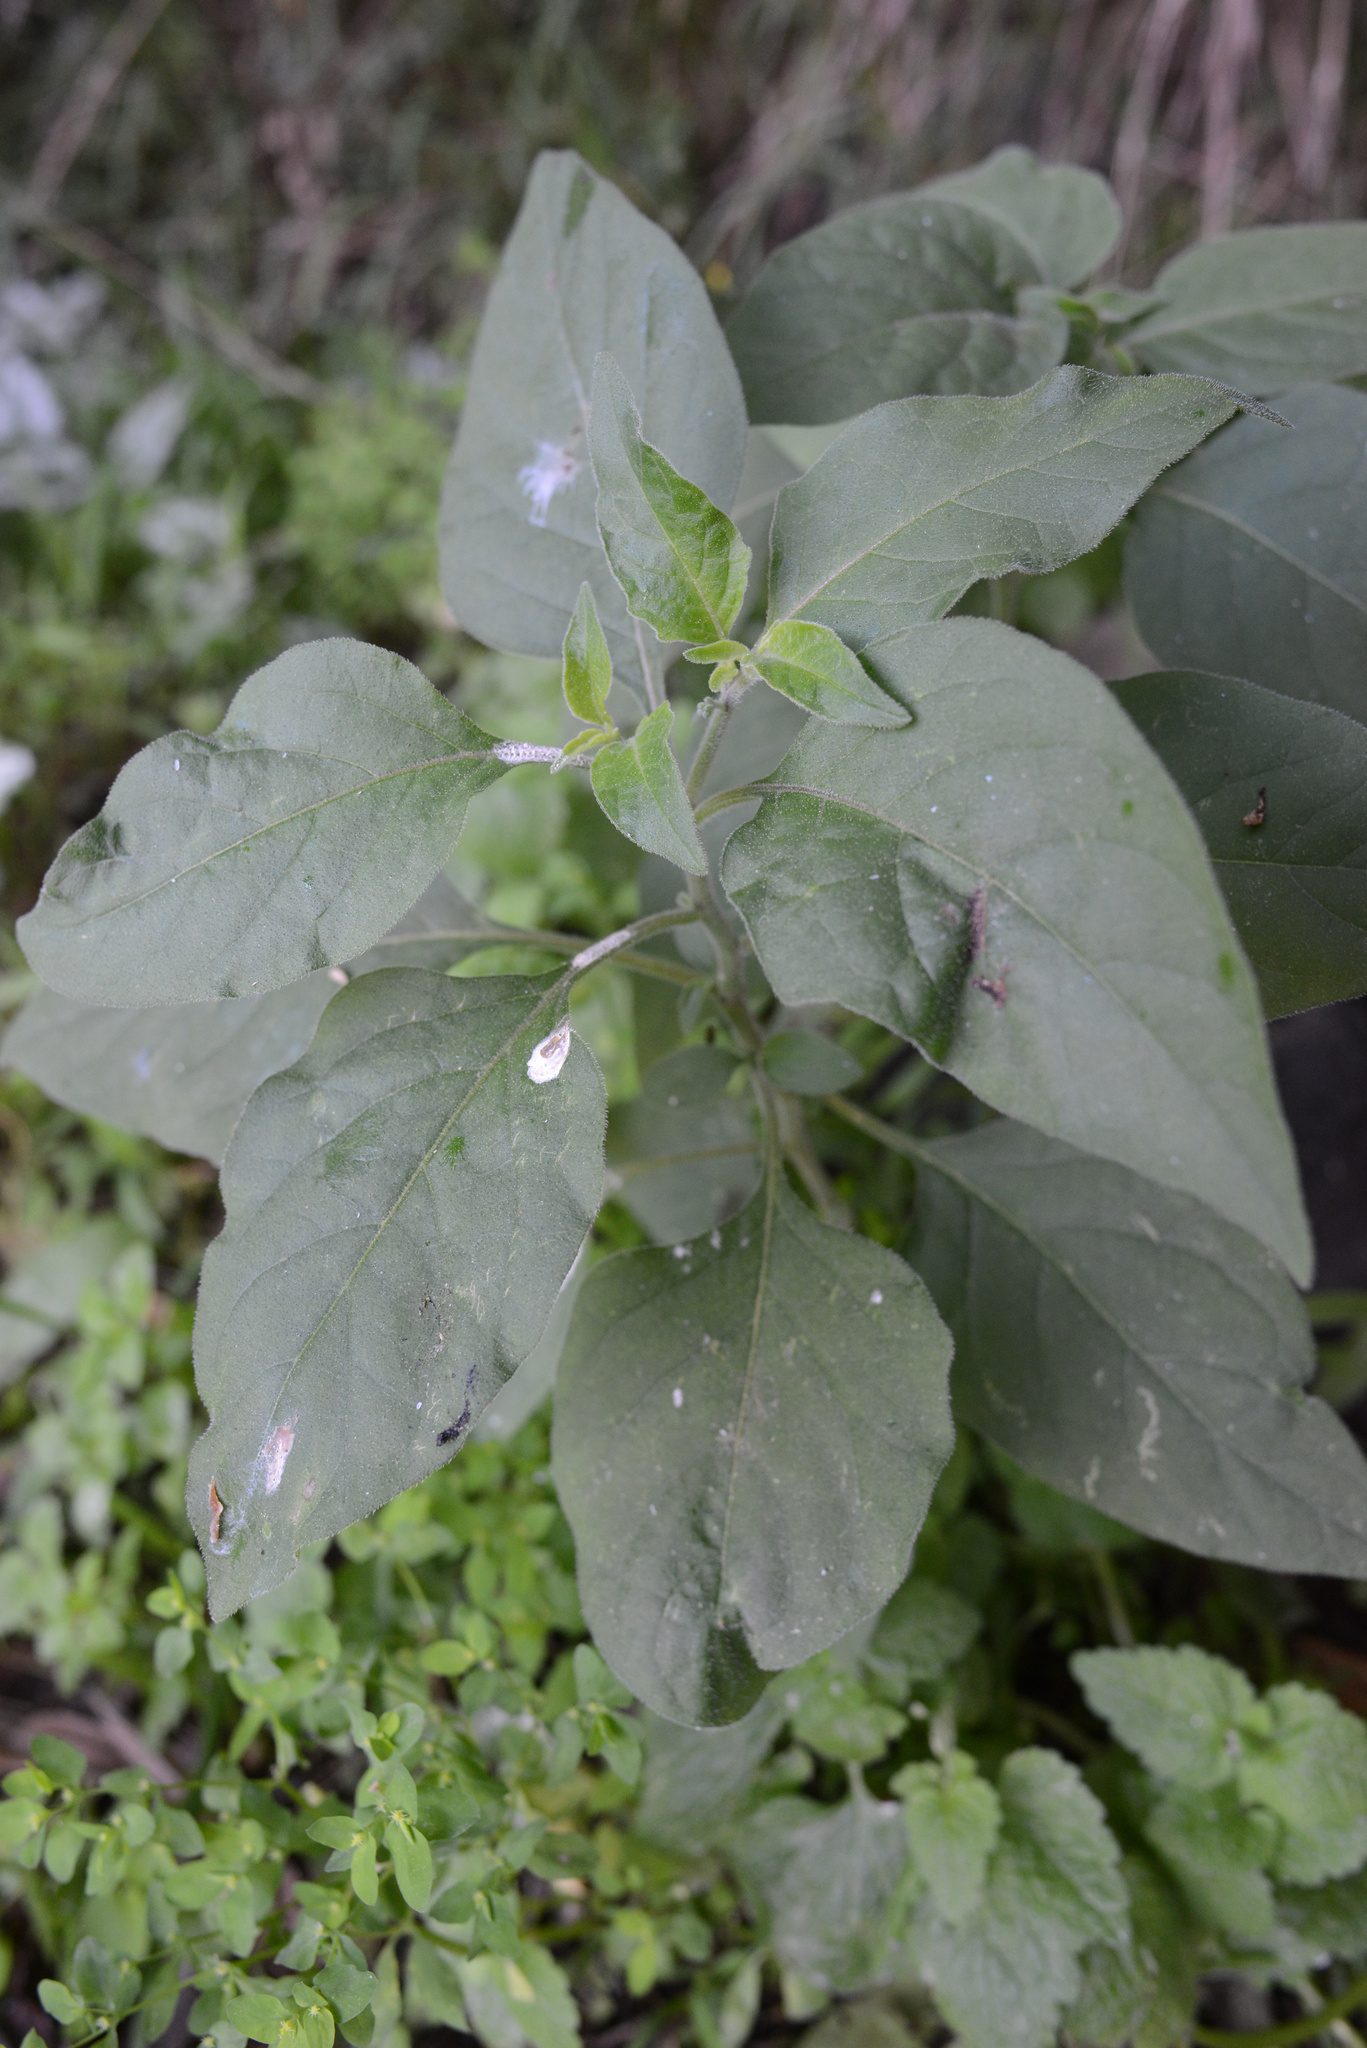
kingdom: Plantae
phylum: Tracheophyta
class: Magnoliopsida
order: Solanales
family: Solanaceae
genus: Solanum
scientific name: Solanum chenopodioides
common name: Tall nightshade
